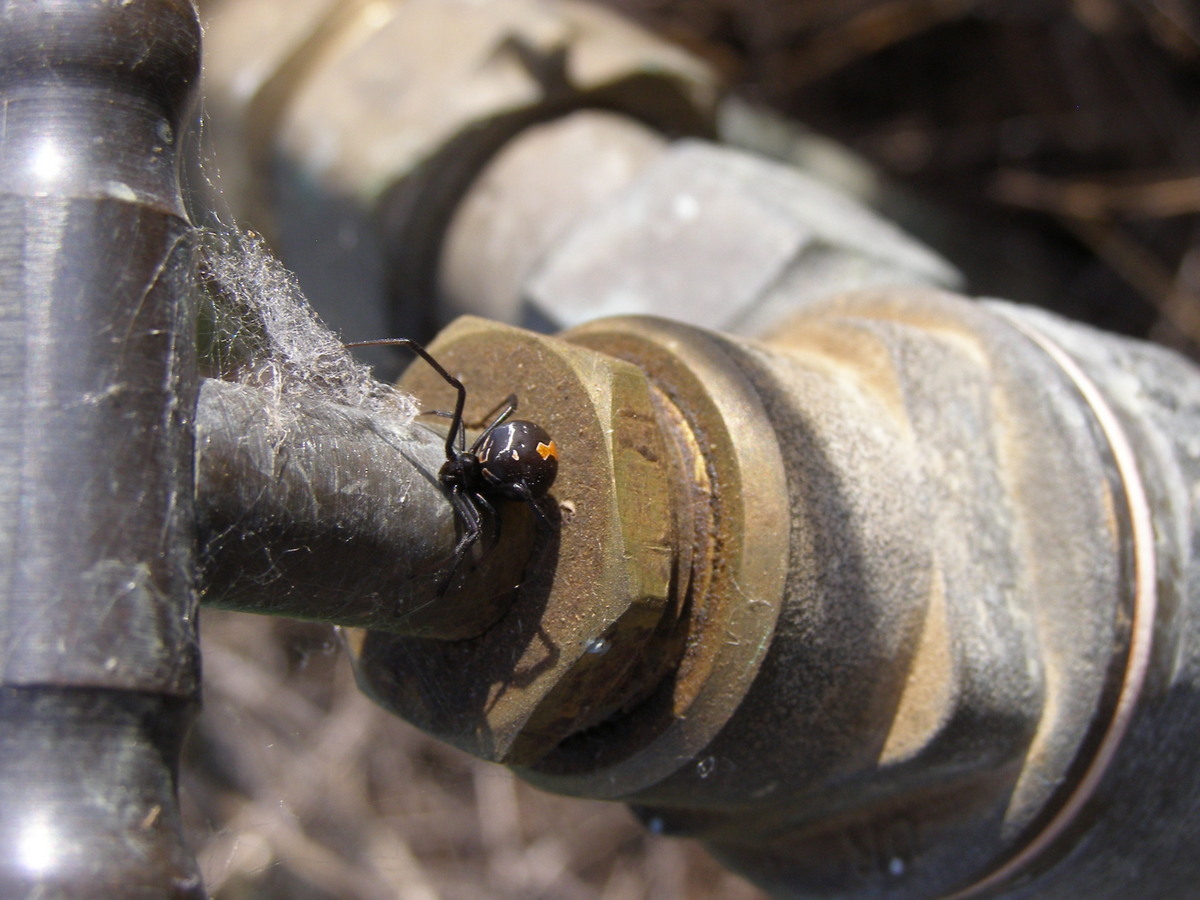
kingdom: Animalia
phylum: Arthropoda
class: Arachnida
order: Araneae
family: Theridiidae
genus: Latrodectus
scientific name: Latrodectus hasselti
